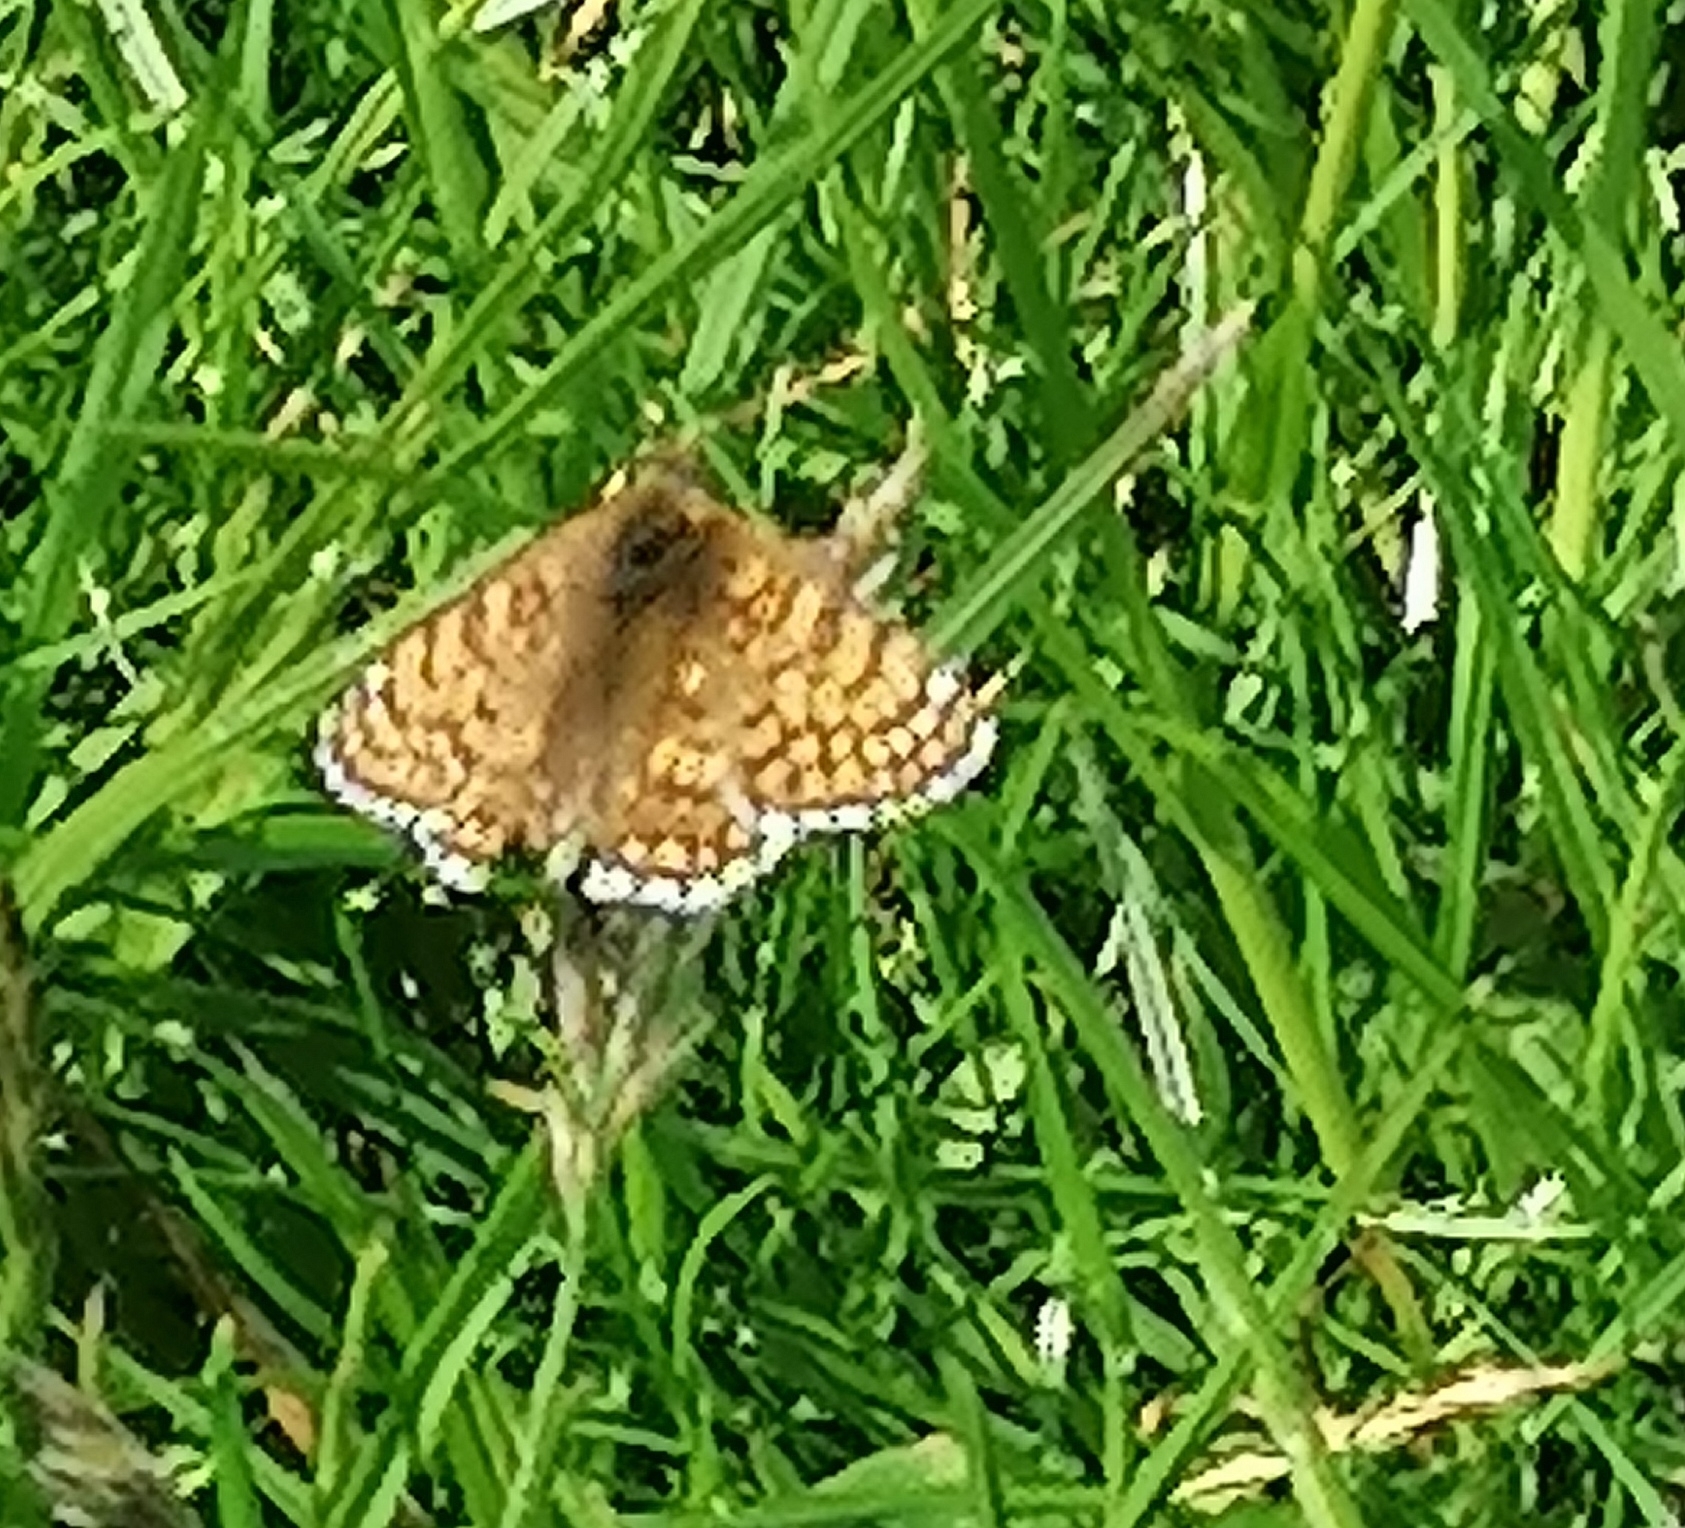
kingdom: Animalia
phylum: Arthropoda
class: Insecta
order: Lepidoptera
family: Nymphalidae
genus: Melitaea
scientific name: Melitaea cinxia
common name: Glanville fritillary
